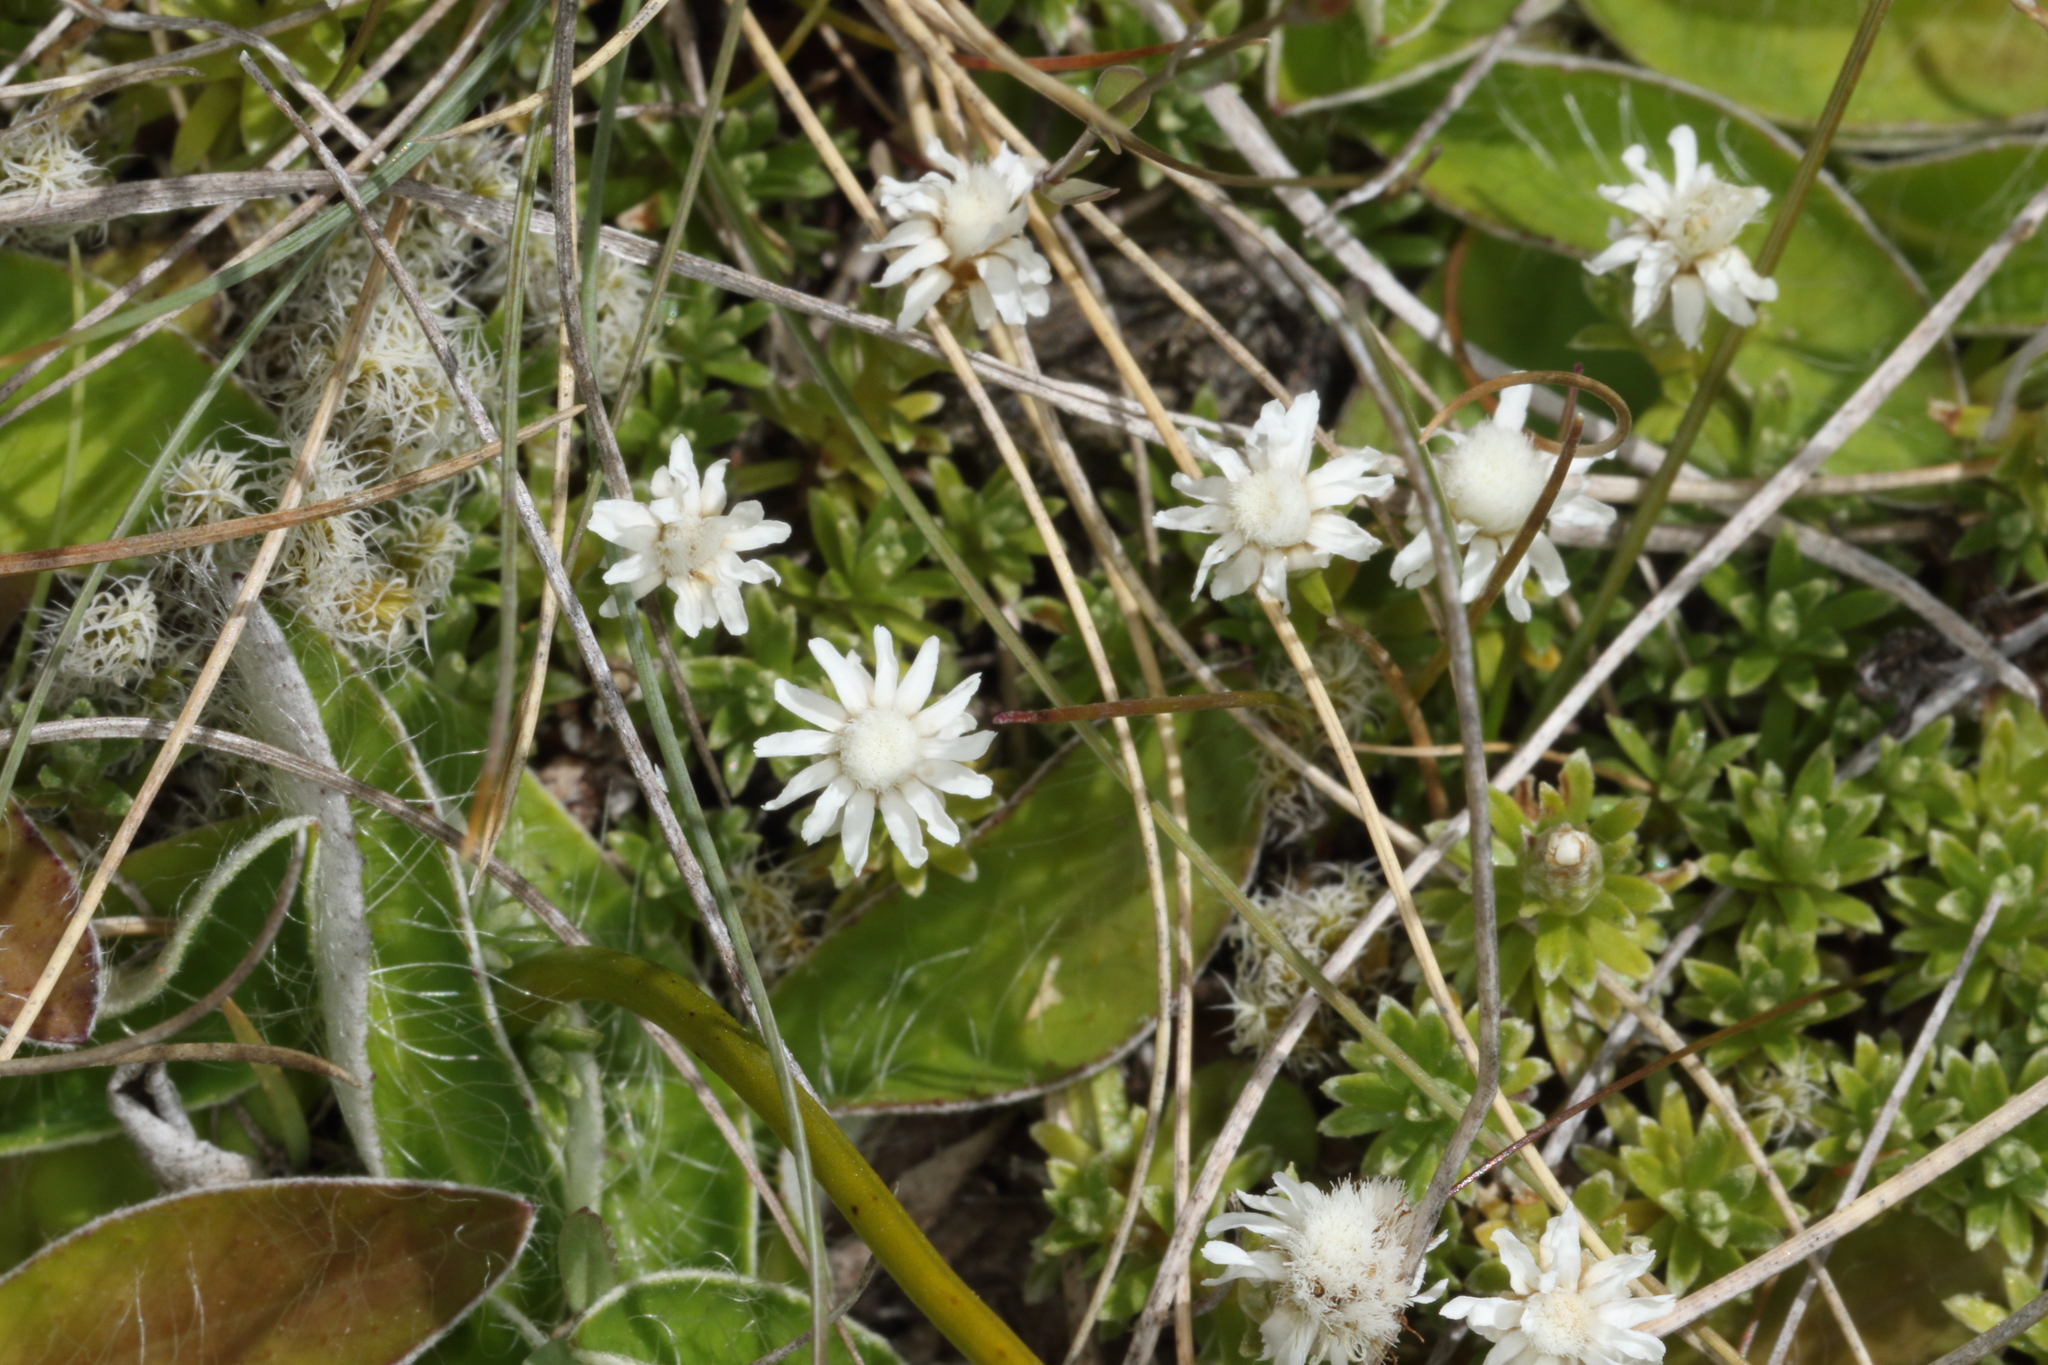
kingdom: Plantae
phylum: Tracheophyta
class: Magnoliopsida
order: Asterales
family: Asteraceae
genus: Raoulia
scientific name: Raoulia subsericea
